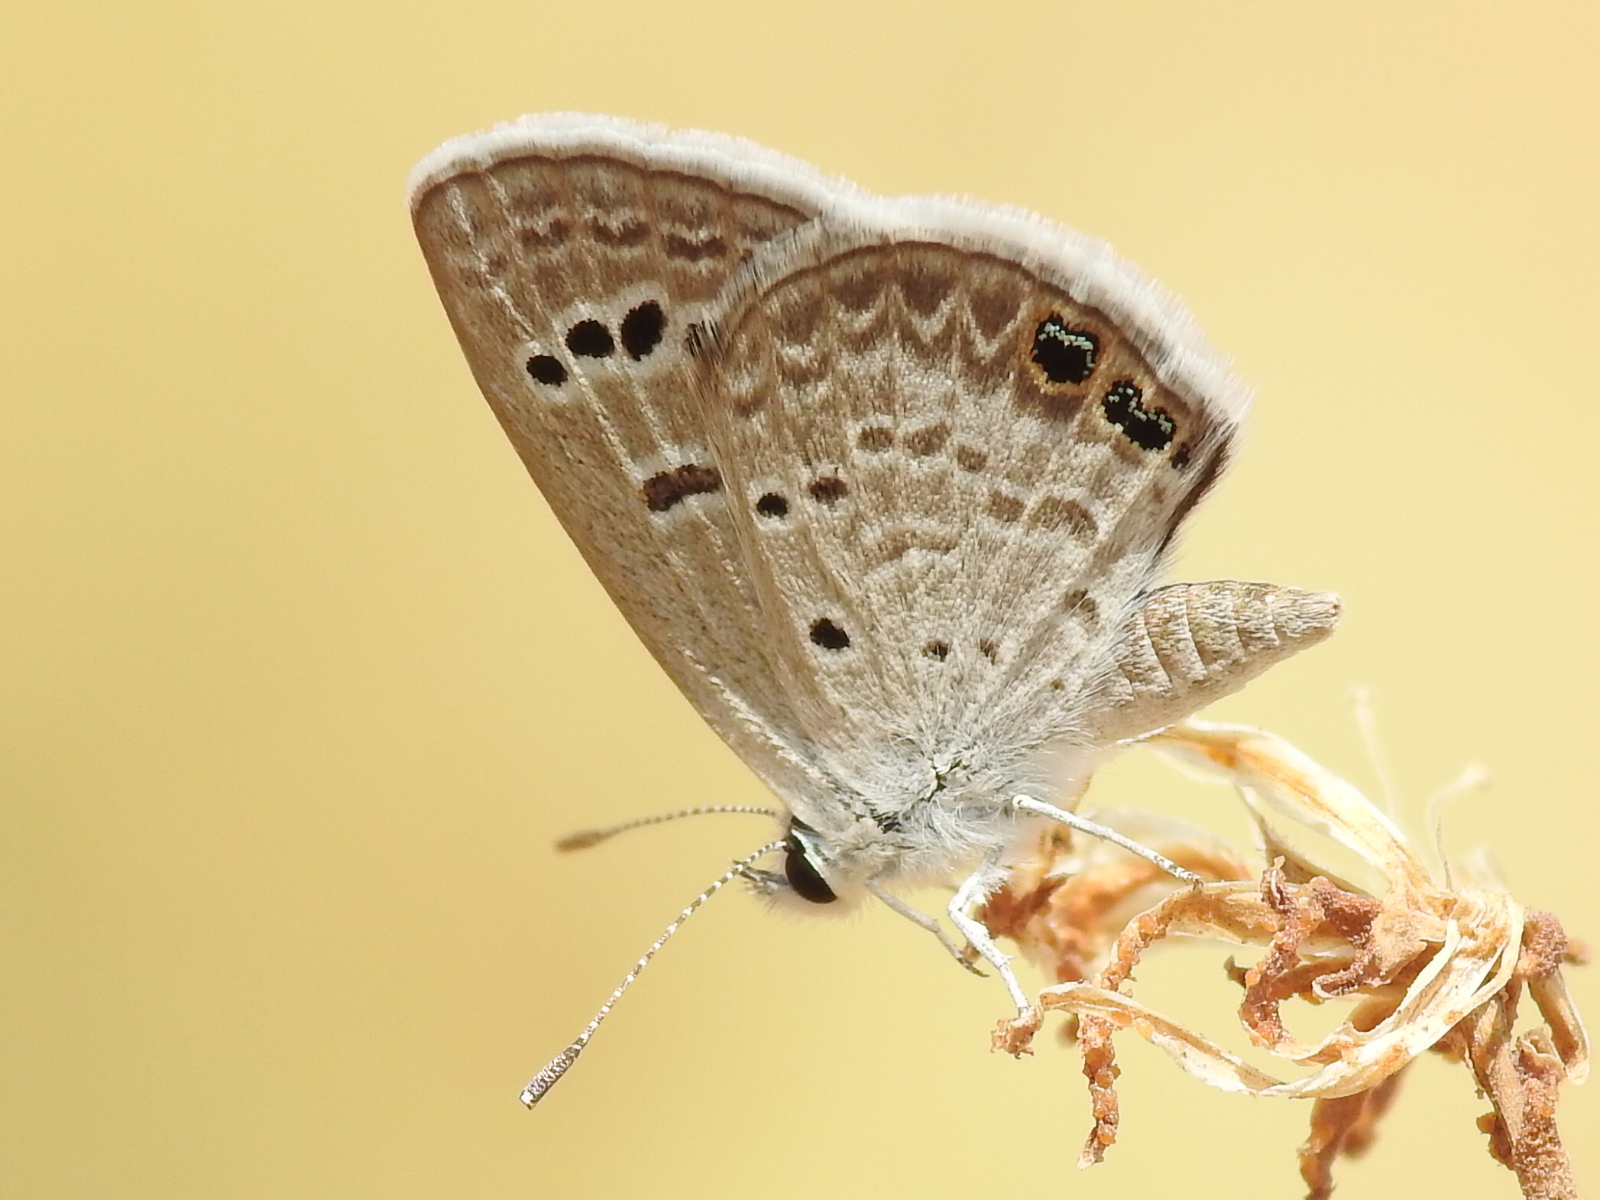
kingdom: Animalia
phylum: Arthropoda
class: Insecta
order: Lepidoptera
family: Lycaenidae
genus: Echinargus
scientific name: Echinargus isola
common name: Reakirt's blue
